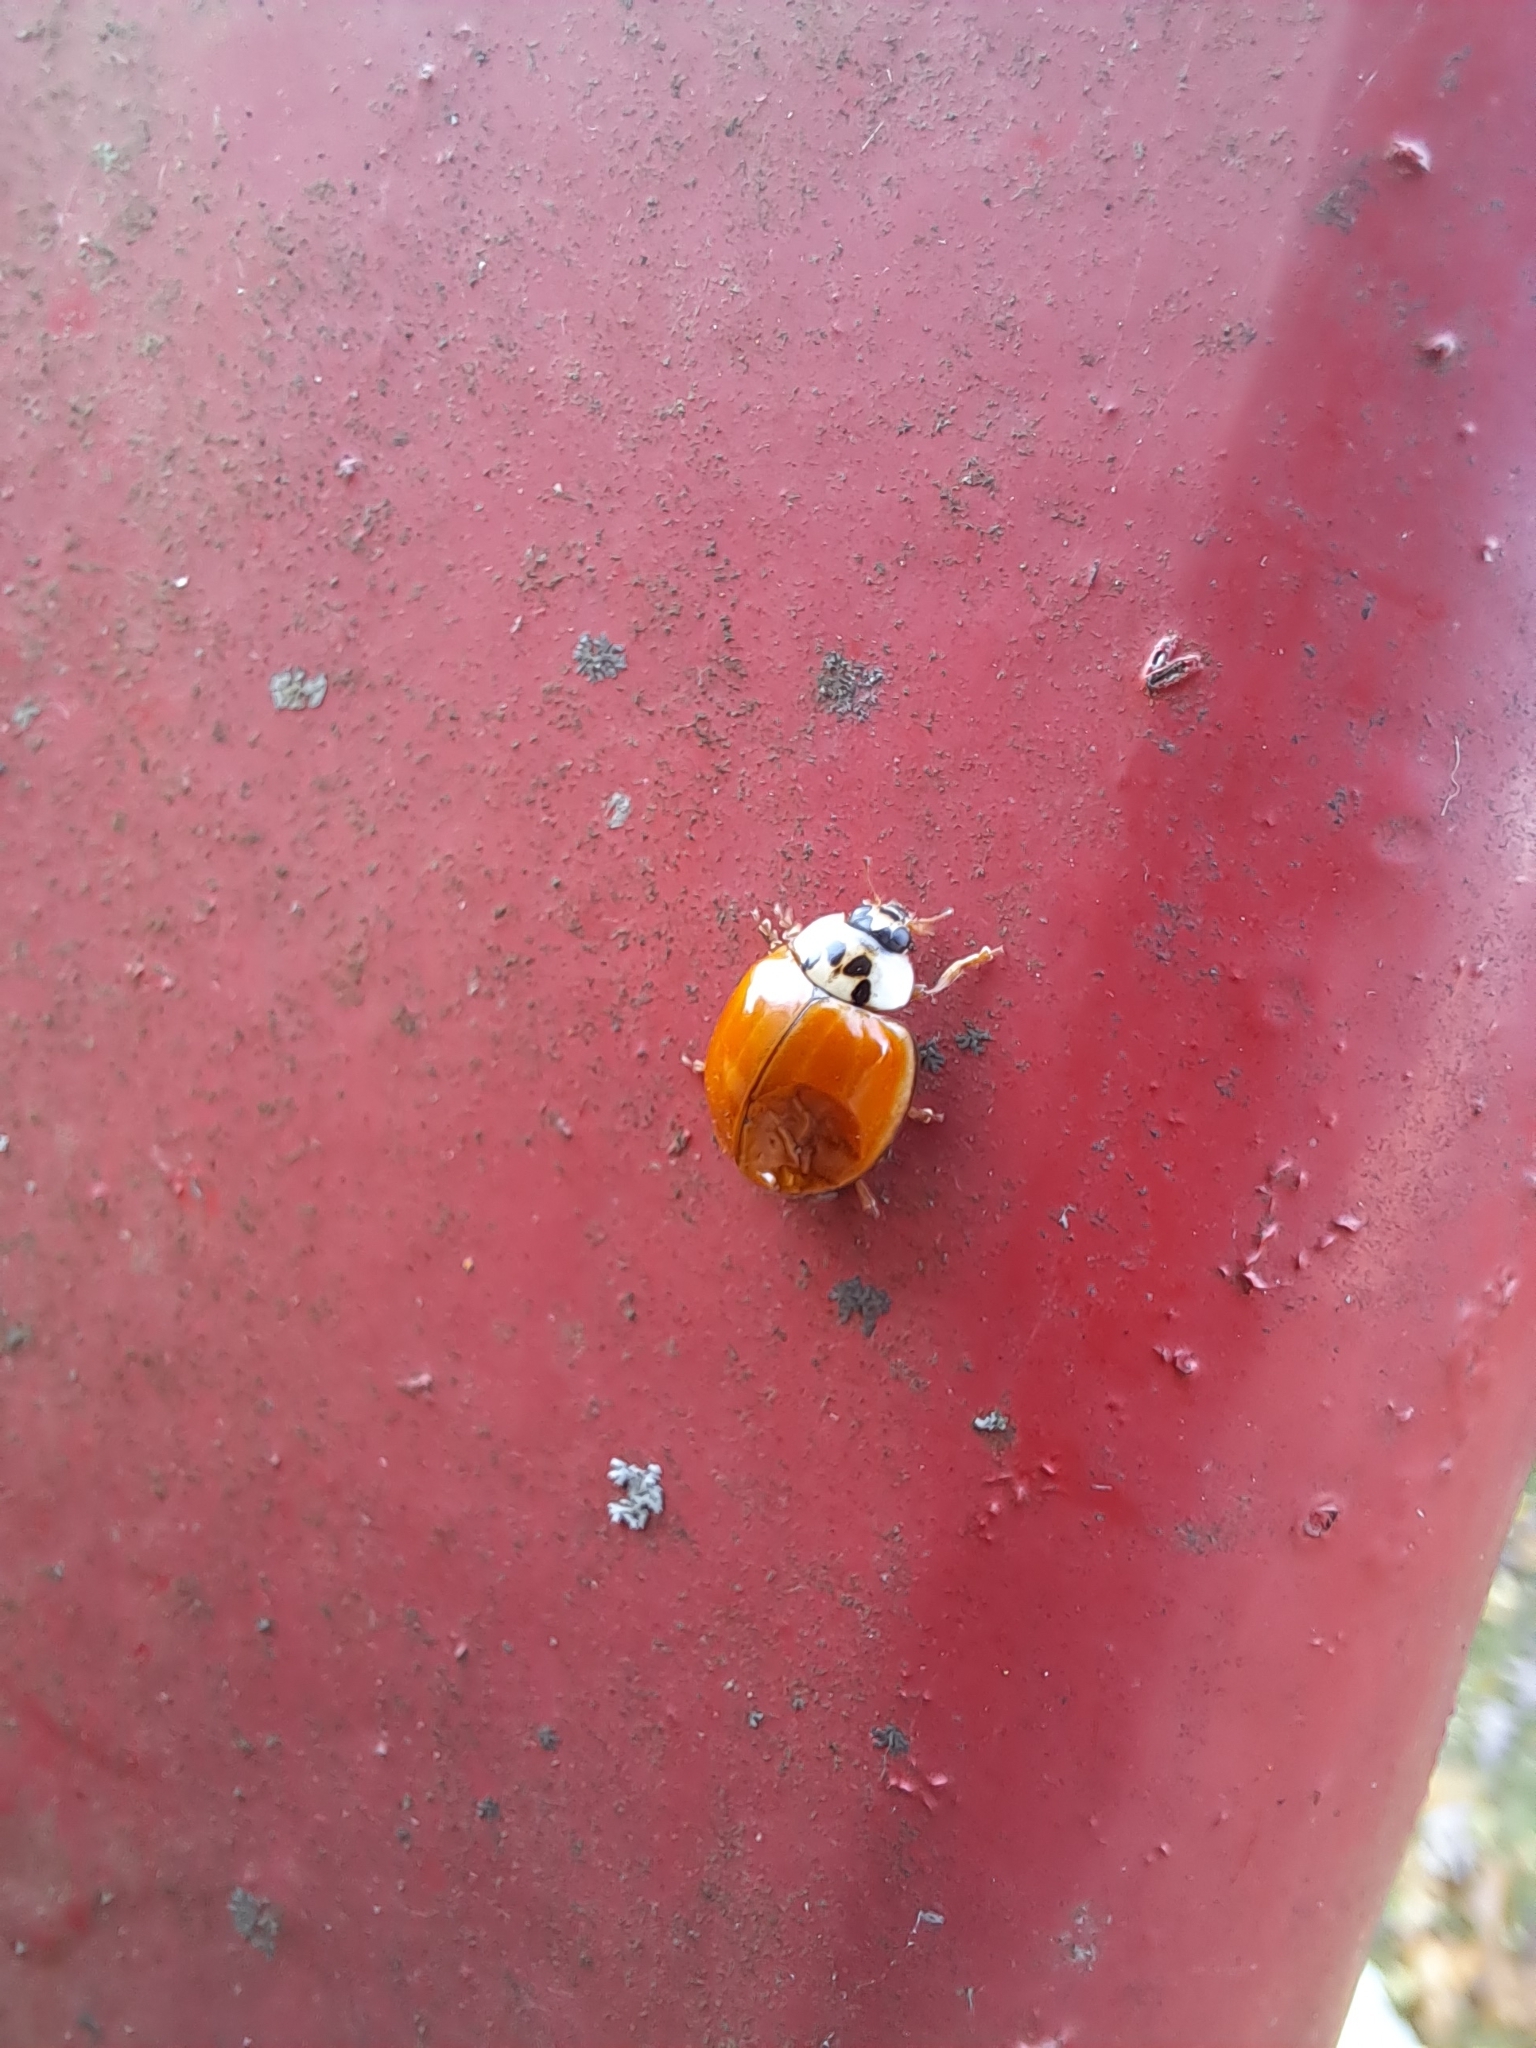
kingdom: Animalia
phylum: Arthropoda
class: Insecta
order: Coleoptera
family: Coccinellidae
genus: Harmonia
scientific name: Harmonia axyridis
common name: Harlequin ladybird
